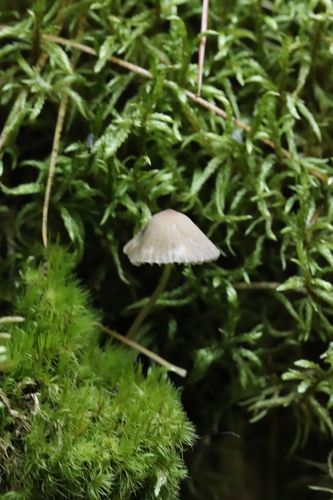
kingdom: Fungi
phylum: Basidiomycota
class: Agaricomycetes
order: Agaricales
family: Mycenaceae
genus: Mycena
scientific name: Mycena viridimarginata
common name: Olive edge bonnet
